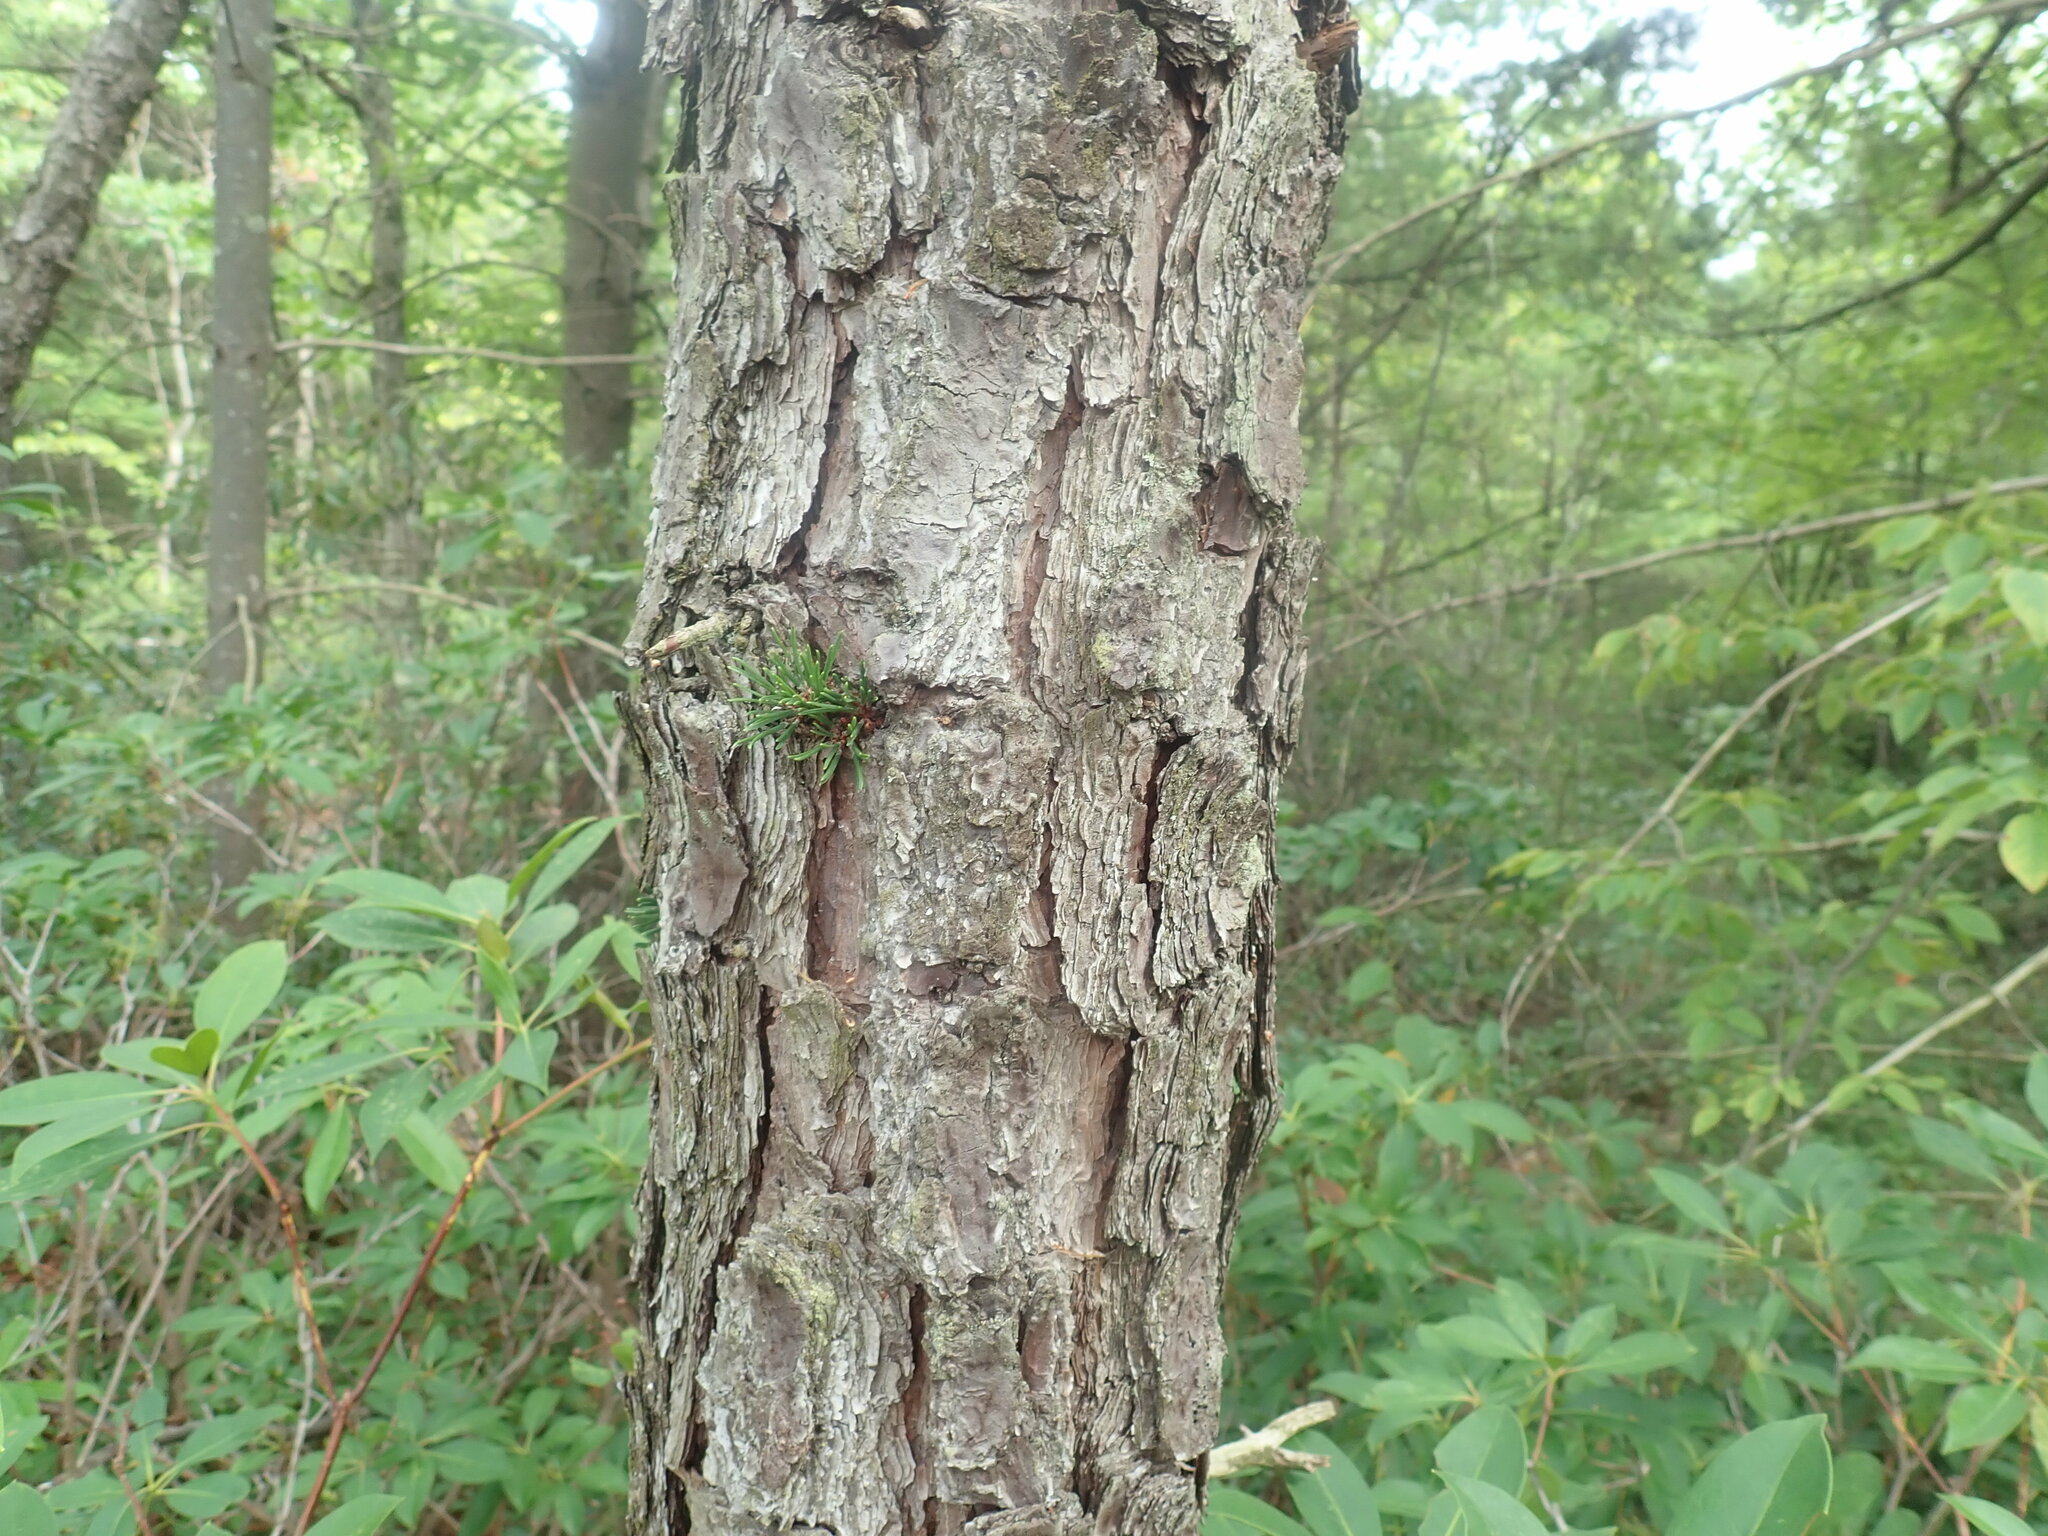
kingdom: Plantae
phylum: Tracheophyta
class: Pinopsida
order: Pinales
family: Pinaceae
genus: Pinus
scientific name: Pinus rigida
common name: Pitch pine
